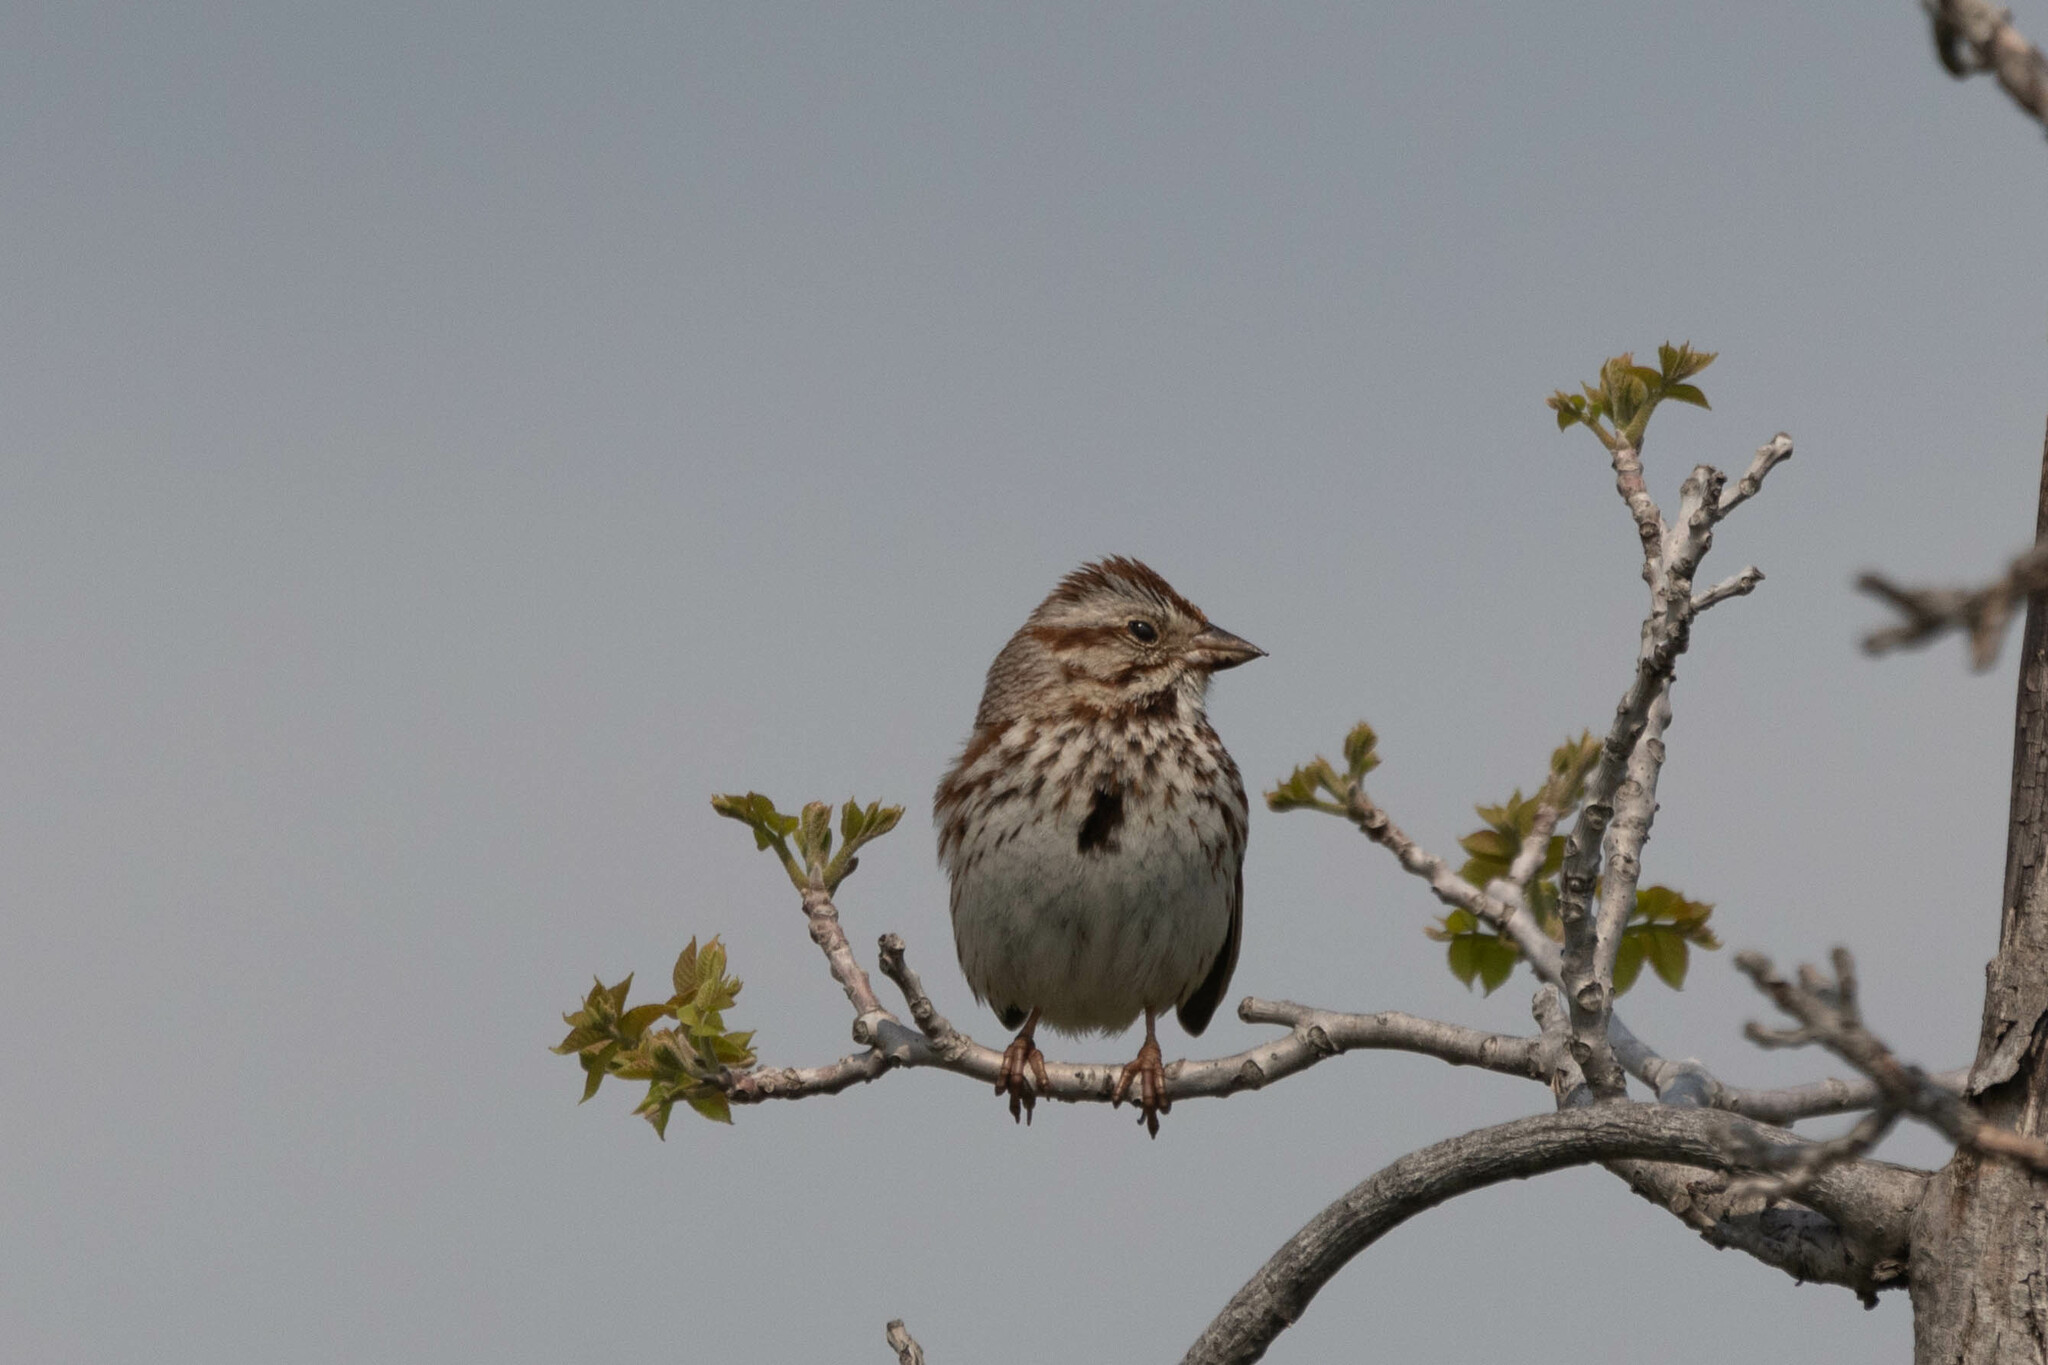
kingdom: Animalia
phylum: Chordata
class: Aves
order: Passeriformes
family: Passerellidae
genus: Melospiza
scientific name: Melospiza melodia
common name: Song sparrow
